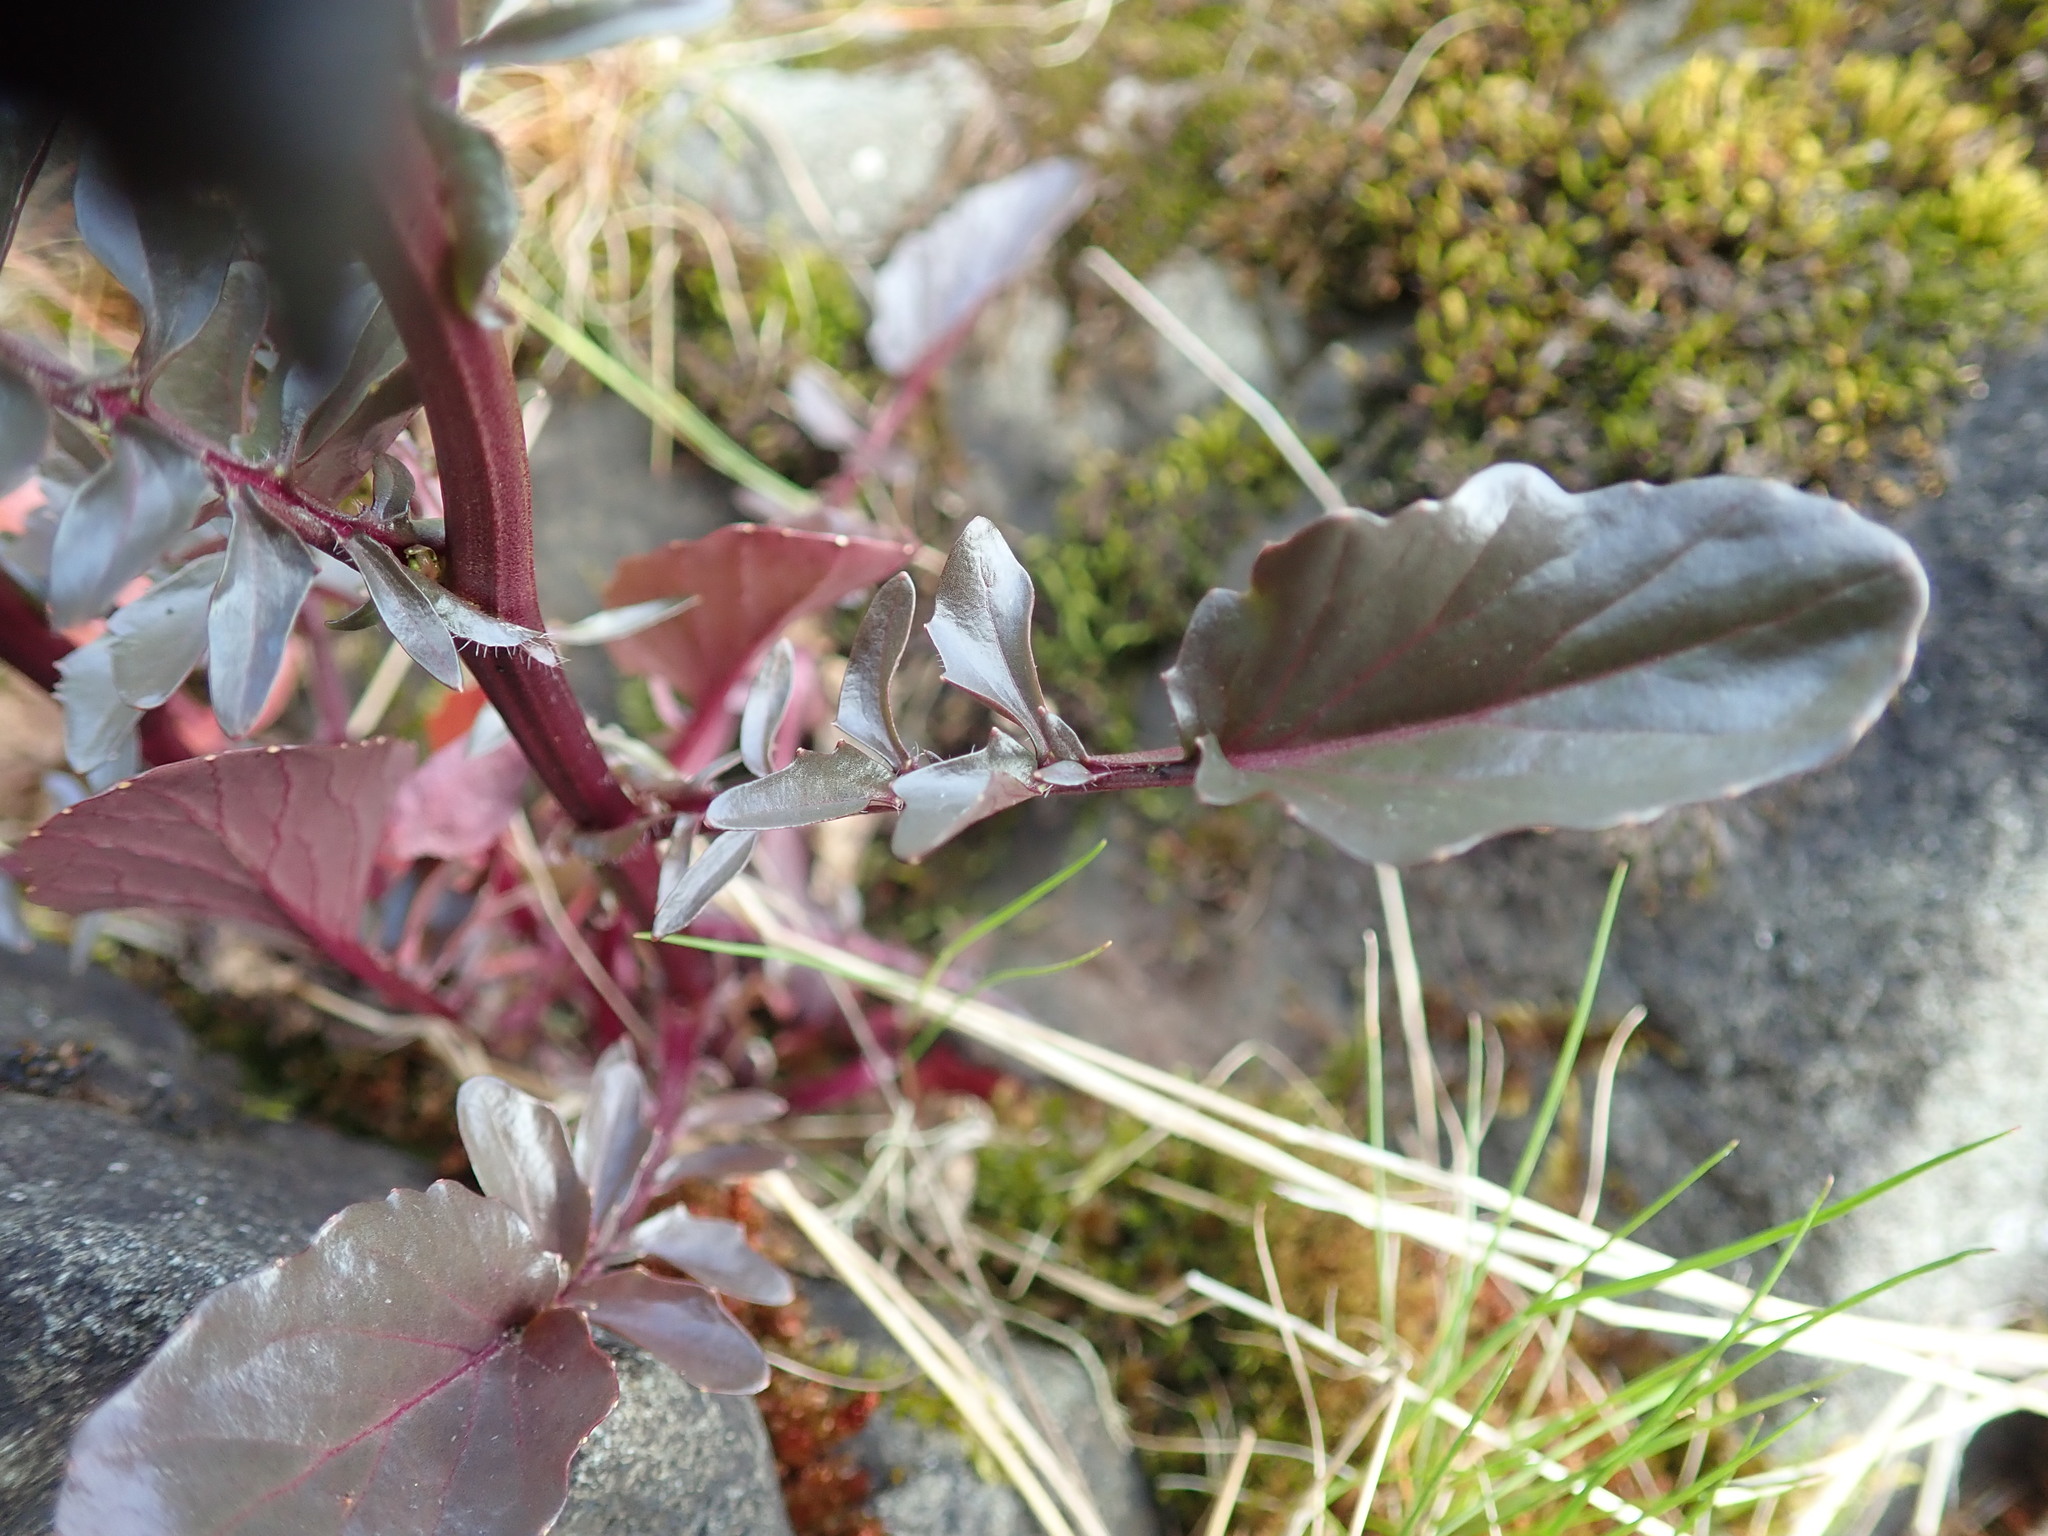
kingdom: Plantae
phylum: Tracheophyta
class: Magnoliopsida
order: Brassicales
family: Brassicaceae
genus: Barbarea
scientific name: Barbarea orthoceras
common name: American wintercress
